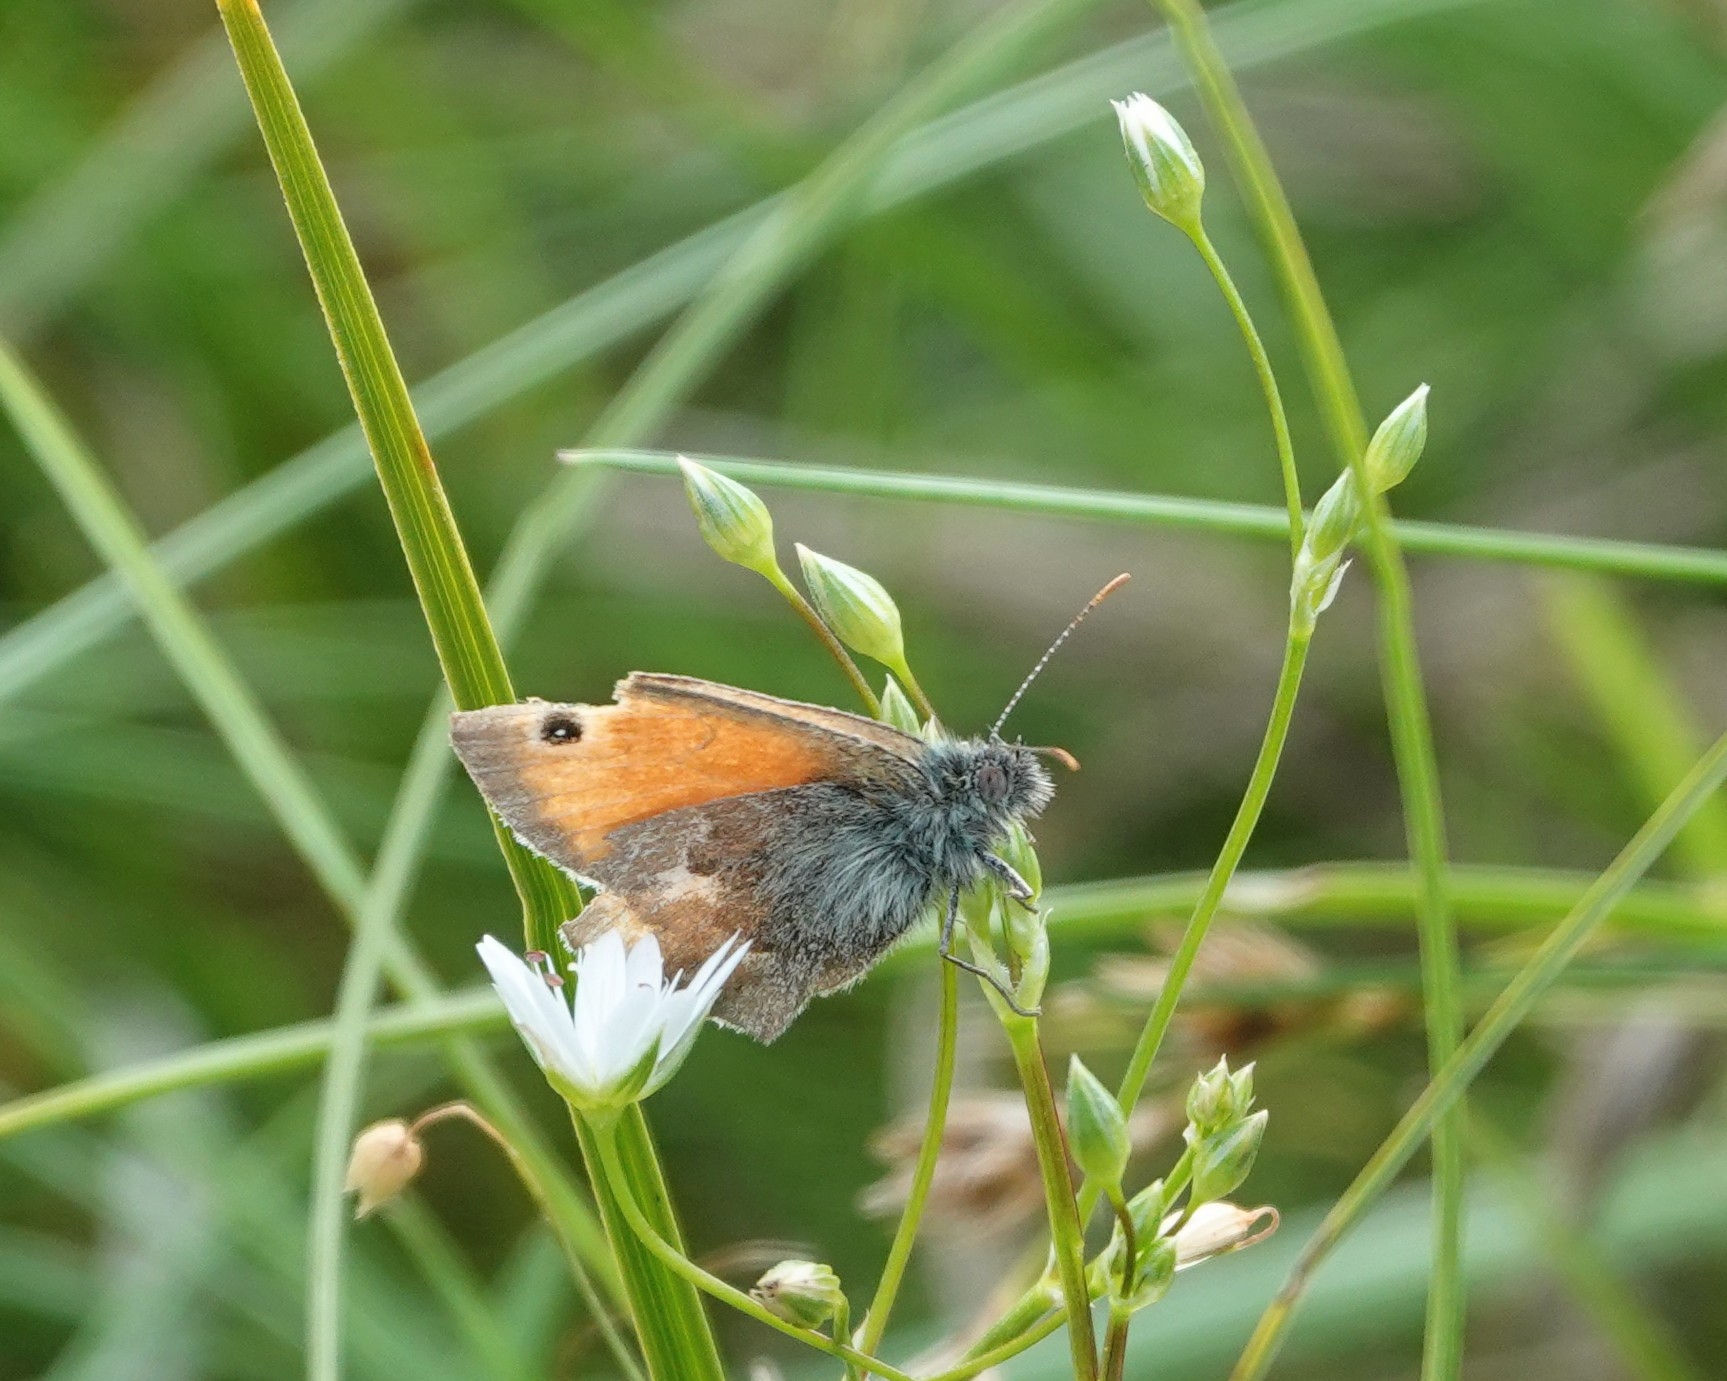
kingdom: Animalia
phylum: Arthropoda
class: Insecta
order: Lepidoptera
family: Nymphalidae
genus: Coenonympha
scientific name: Coenonympha pamphilus
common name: Small heath
